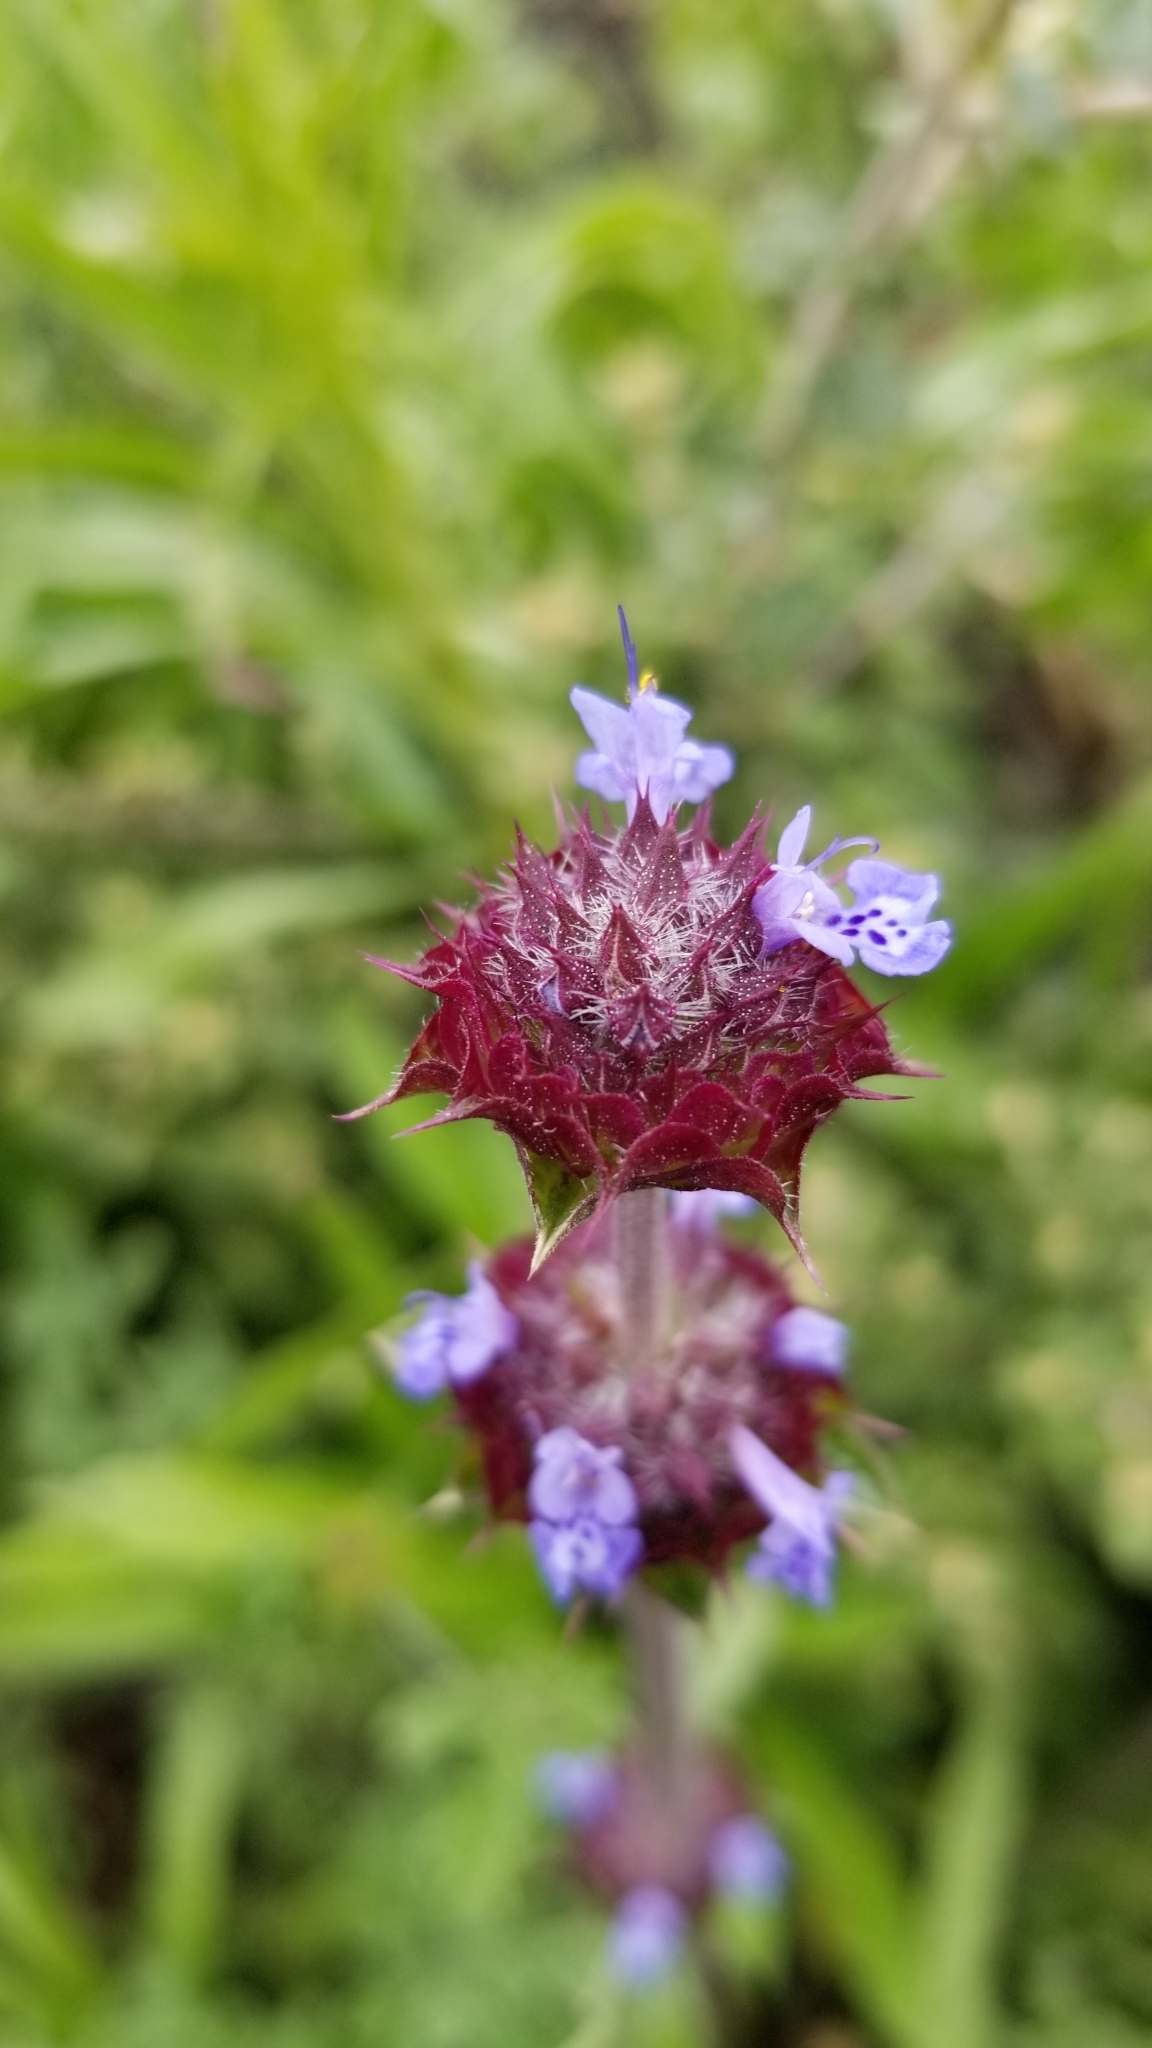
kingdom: Plantae
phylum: Tracheophyta
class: Magnoliopsida
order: Lamiales
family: Lamiaceae
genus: Salvia
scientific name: Salvia columbariae
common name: Chia
